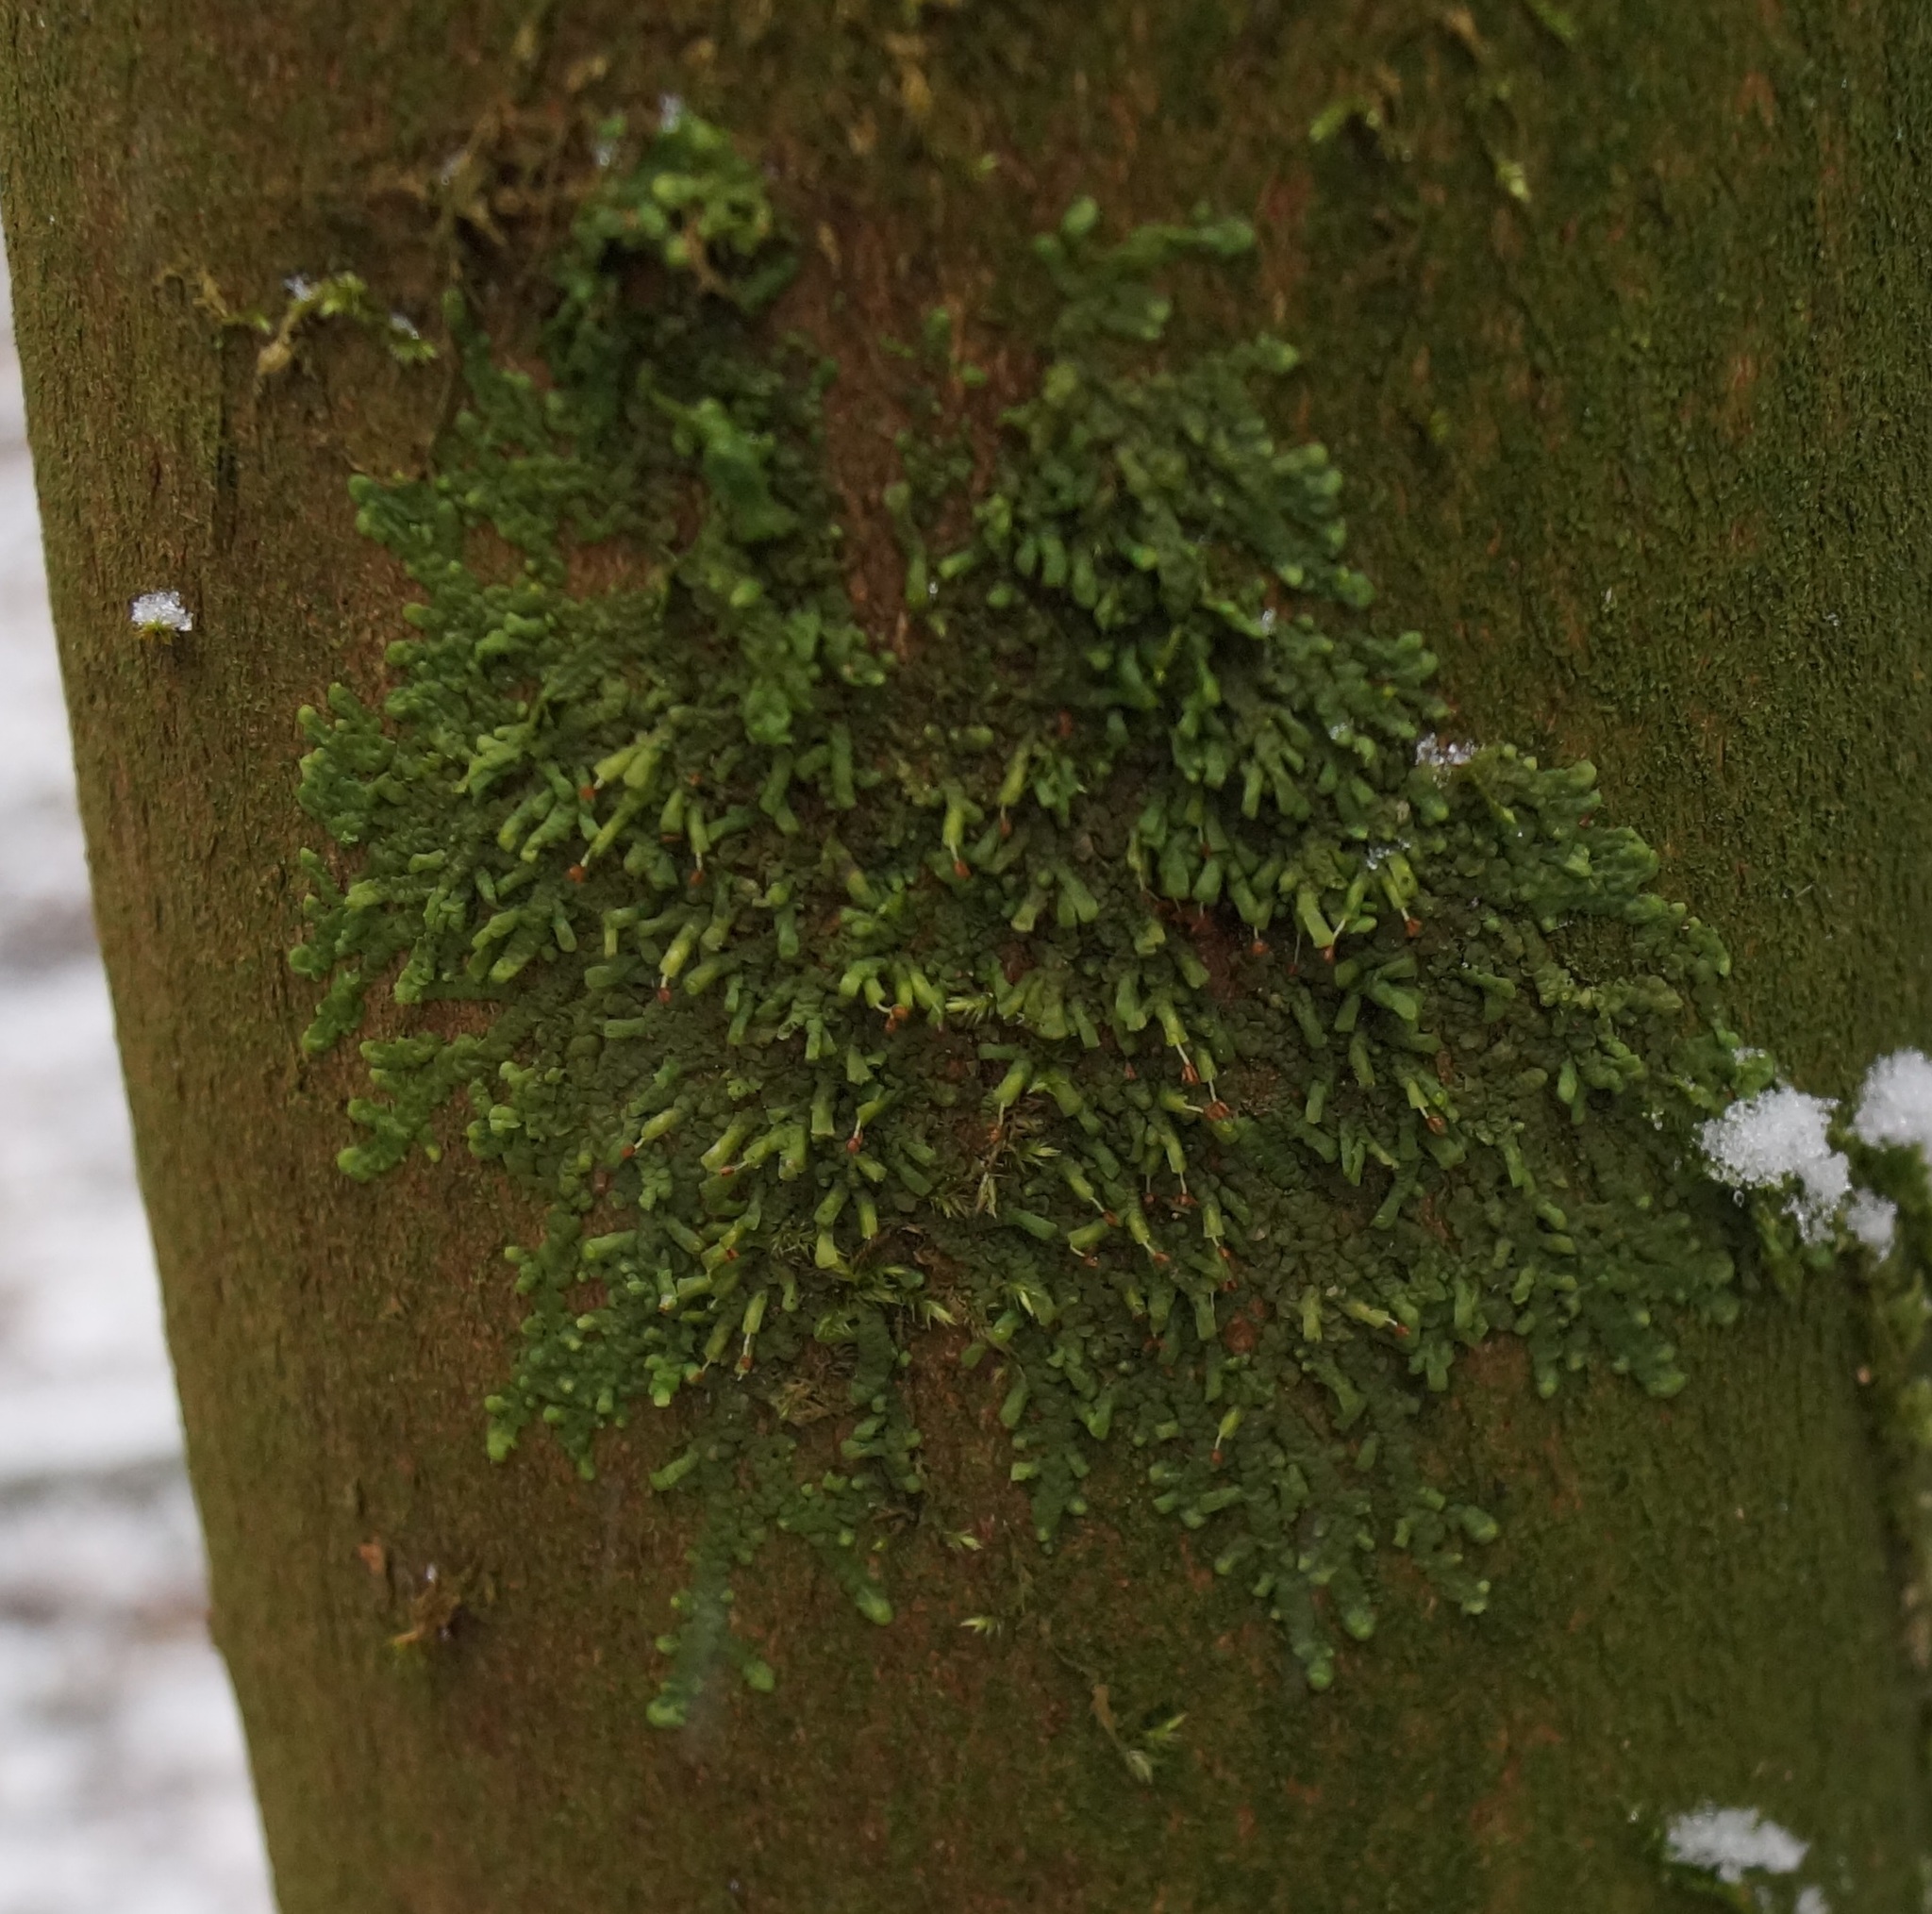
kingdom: Plantae
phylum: Marchantiophyta
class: Jungermanniopsida
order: Porellales
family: Radulaceae
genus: Radula
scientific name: Radula complanata
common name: Flat-leaved scalewort
